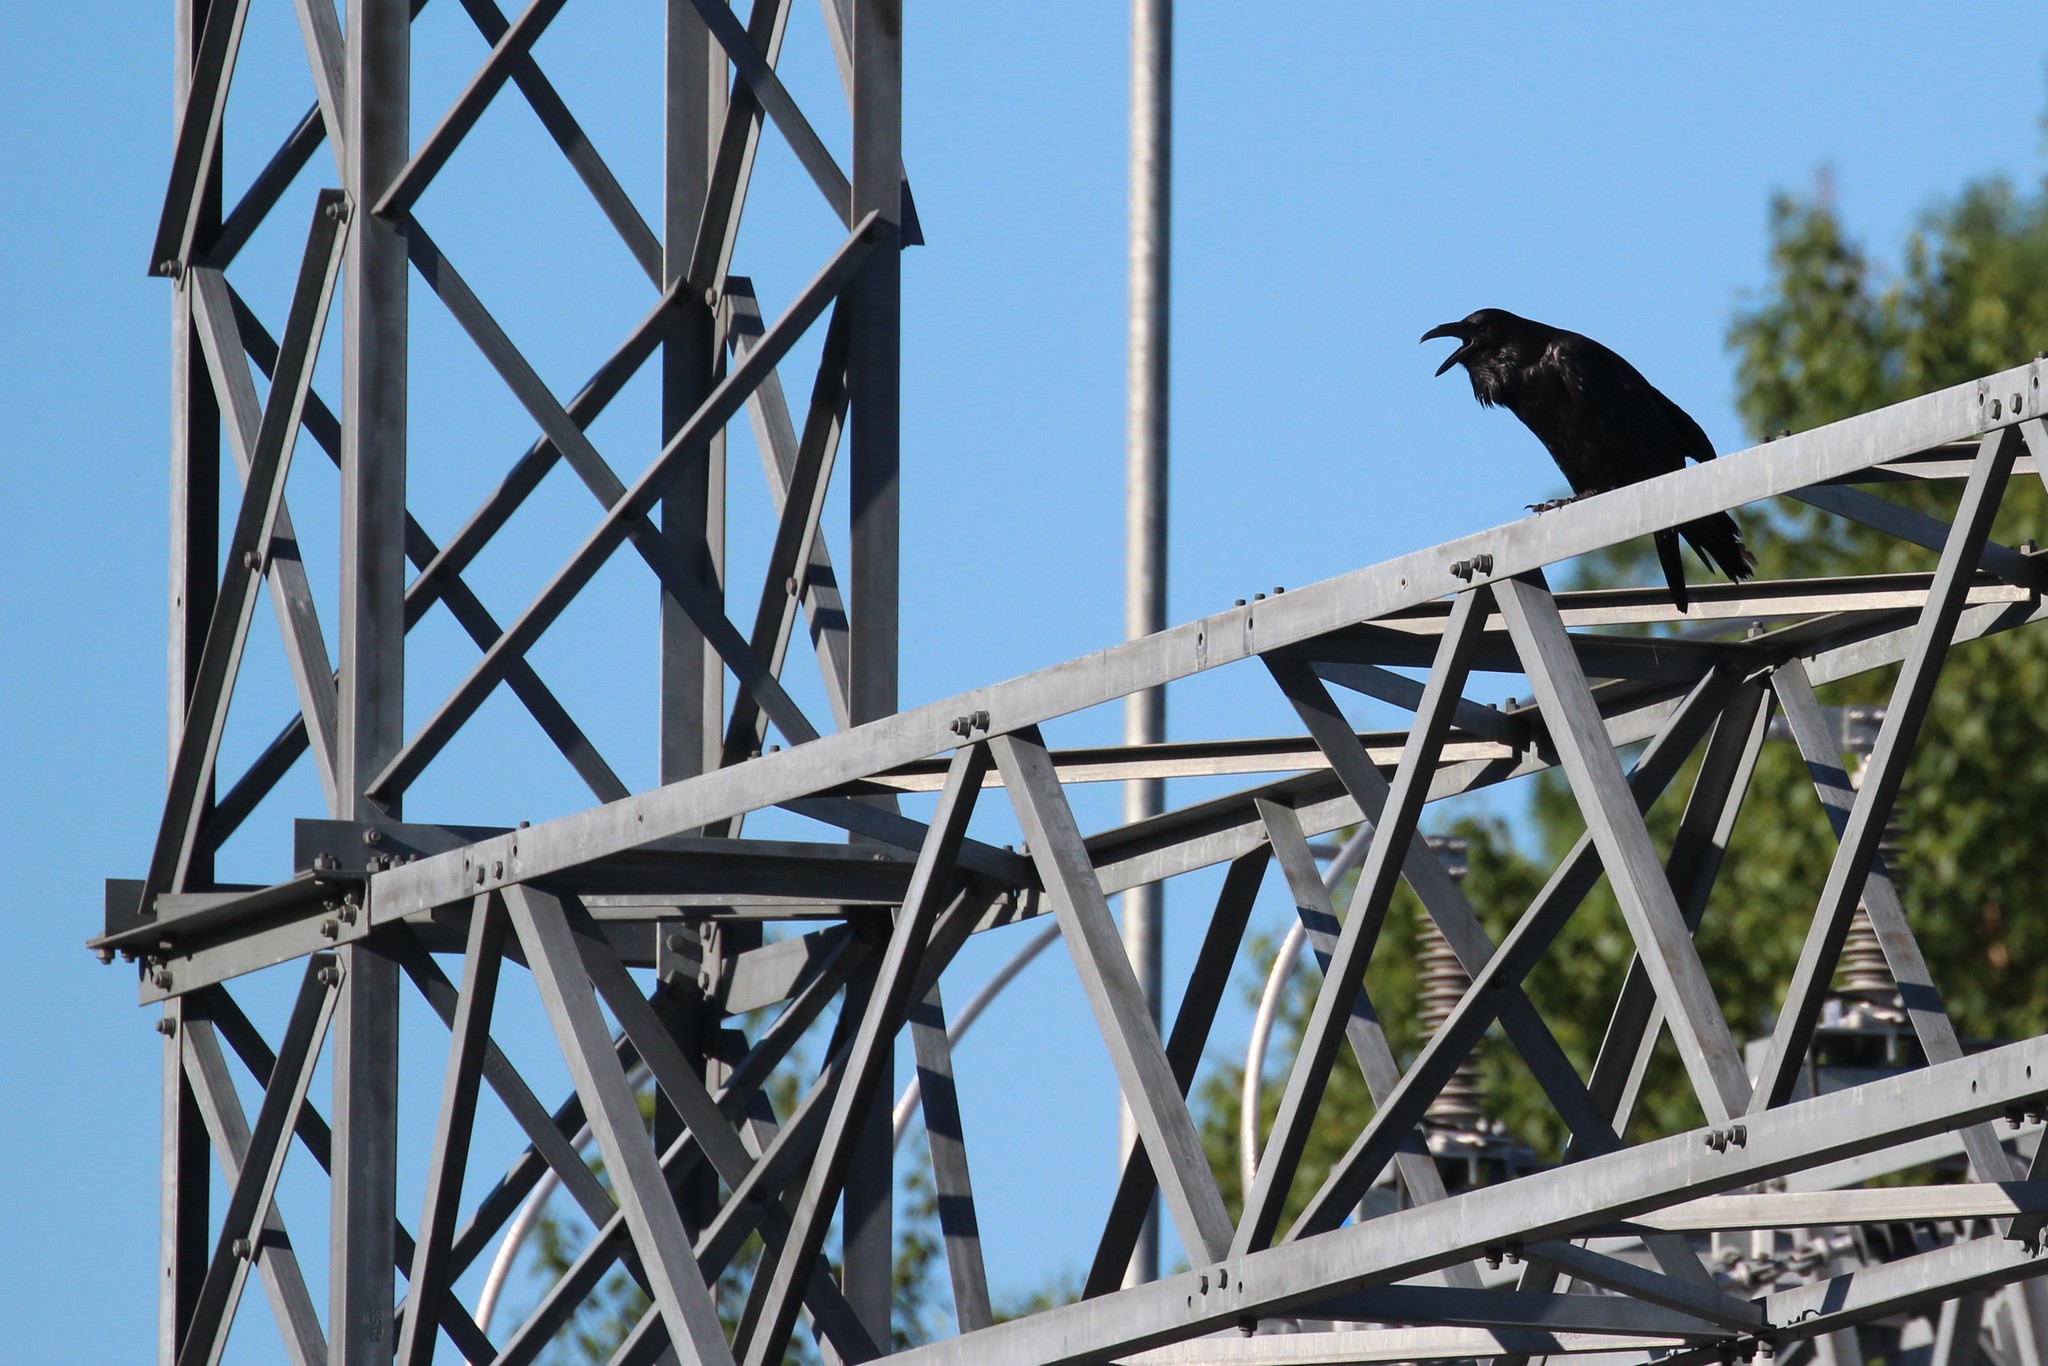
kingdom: Animalia
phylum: Chordata
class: Aves
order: Passeriformes
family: Corvidae
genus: Corvus
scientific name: Corvus corax
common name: Common raven
